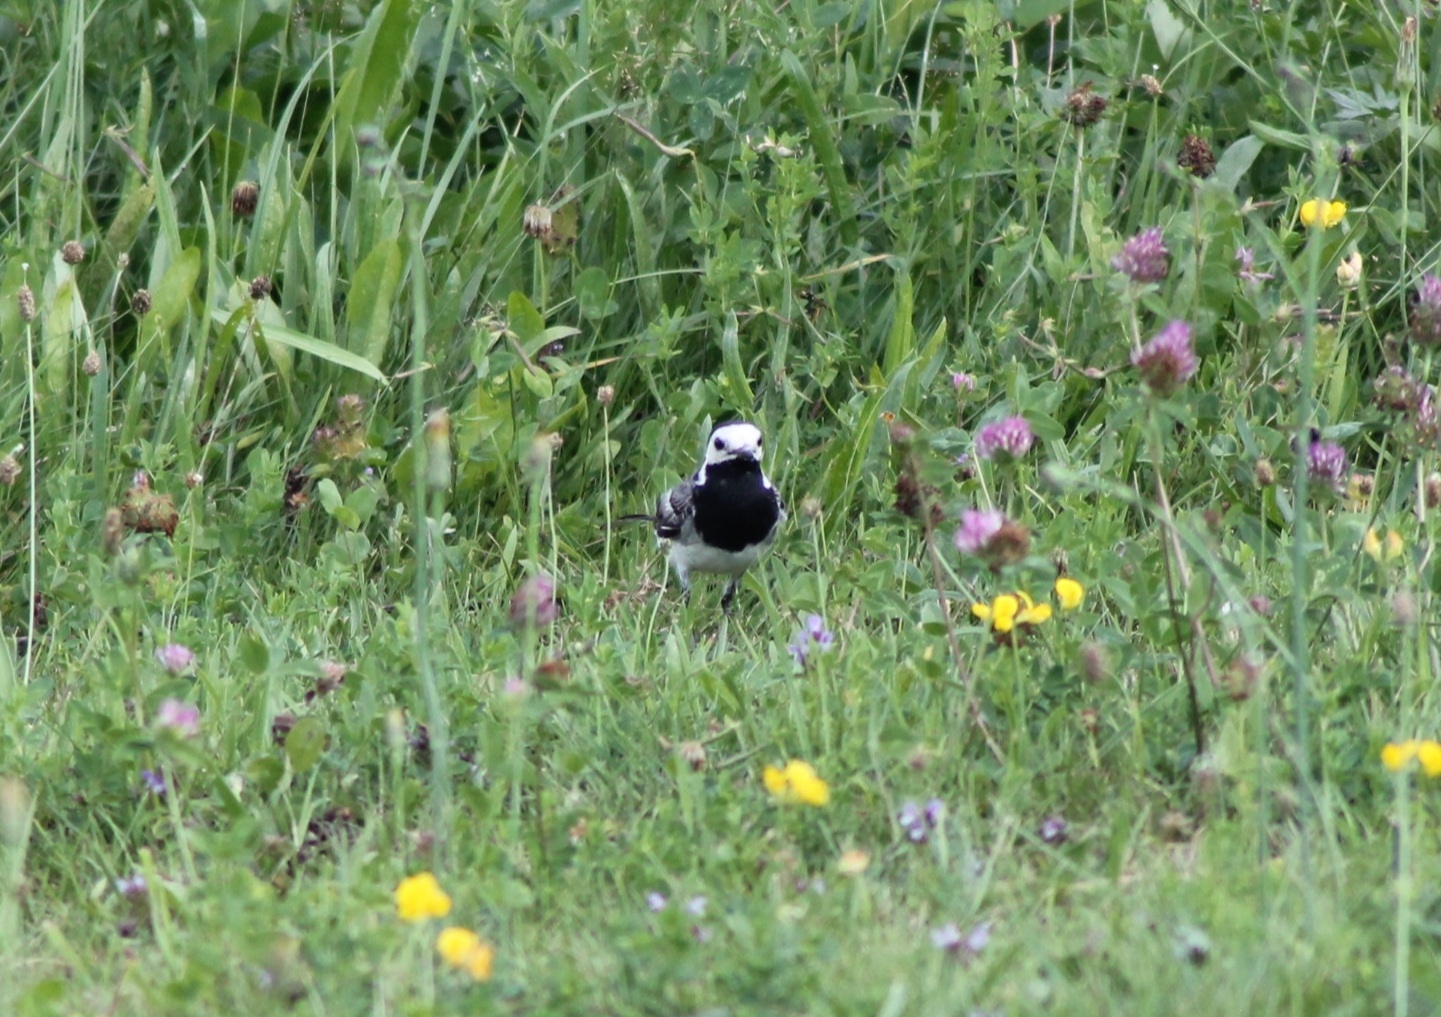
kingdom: Animalia
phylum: Chordata
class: Aves
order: Passeriformes
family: Motacillidae
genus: Motacilla
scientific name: Motacilla alba
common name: White wagtail
